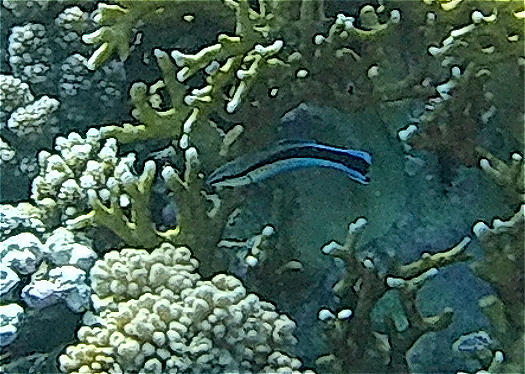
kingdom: Animalia
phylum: Chordata
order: Perciformes
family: Labridae
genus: Labroides
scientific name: Labroides dimidiatus
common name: Blue diesel wrasse
